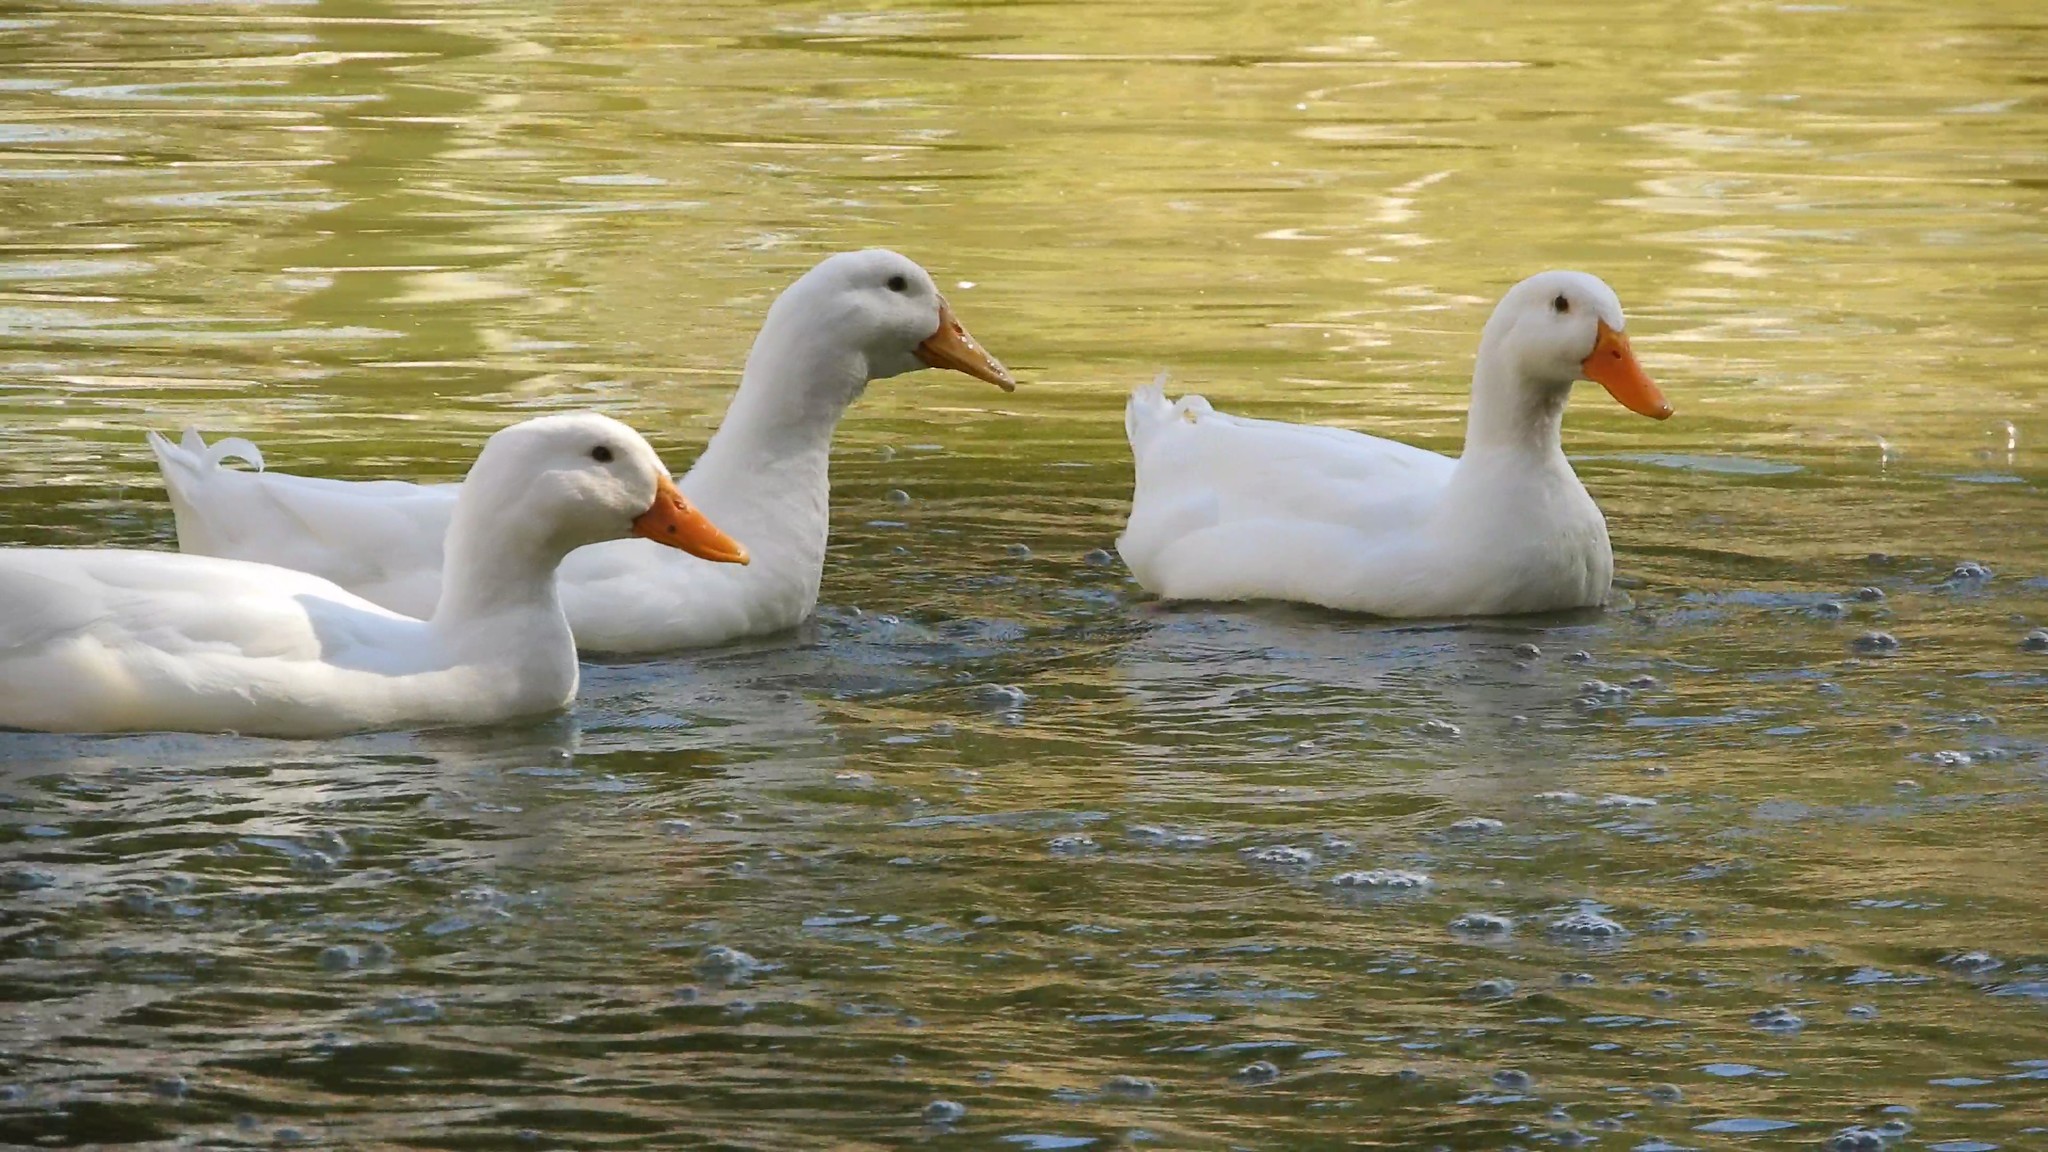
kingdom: Animalia
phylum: Chordata
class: Aves
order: Anseriformes
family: Anatidae
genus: Anas
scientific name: Anas platyrhynchos
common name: Mallard
